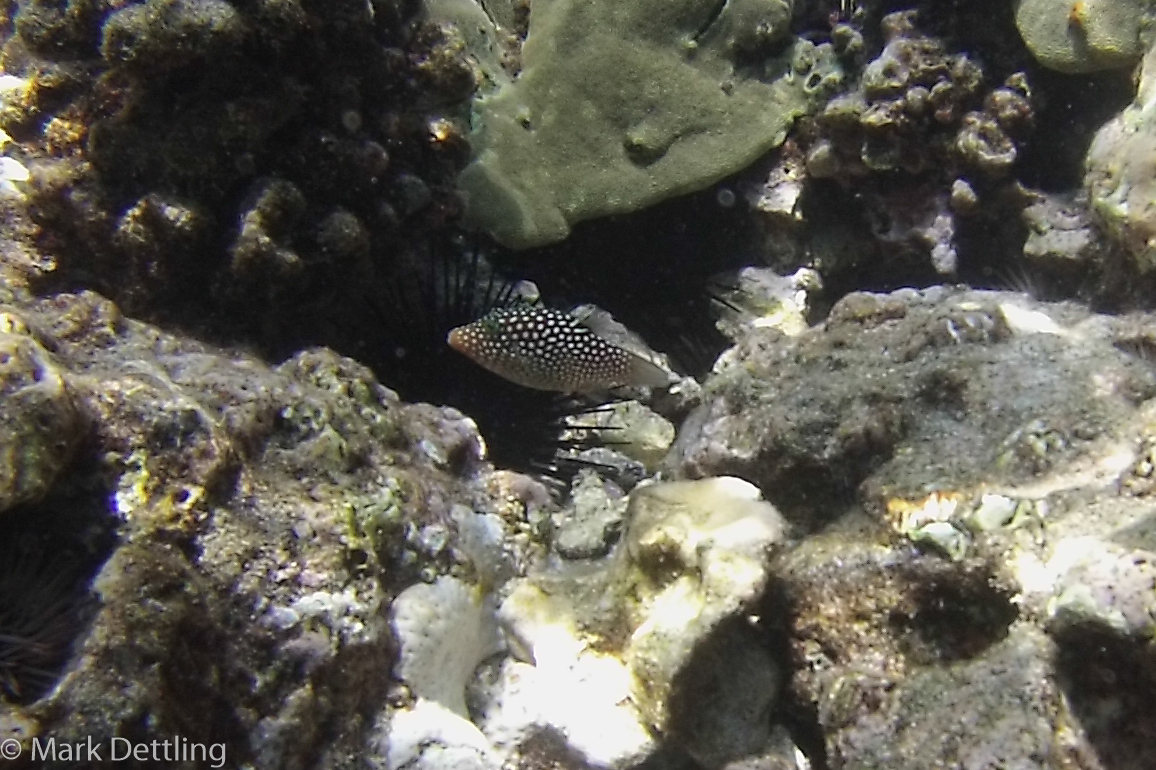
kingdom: Animalia
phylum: Chordata
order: Tetraodontiformes
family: Tetraodontidae
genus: Canthigaster
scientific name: Canthigaster jactator
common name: Hawaiian whitespotted toby
